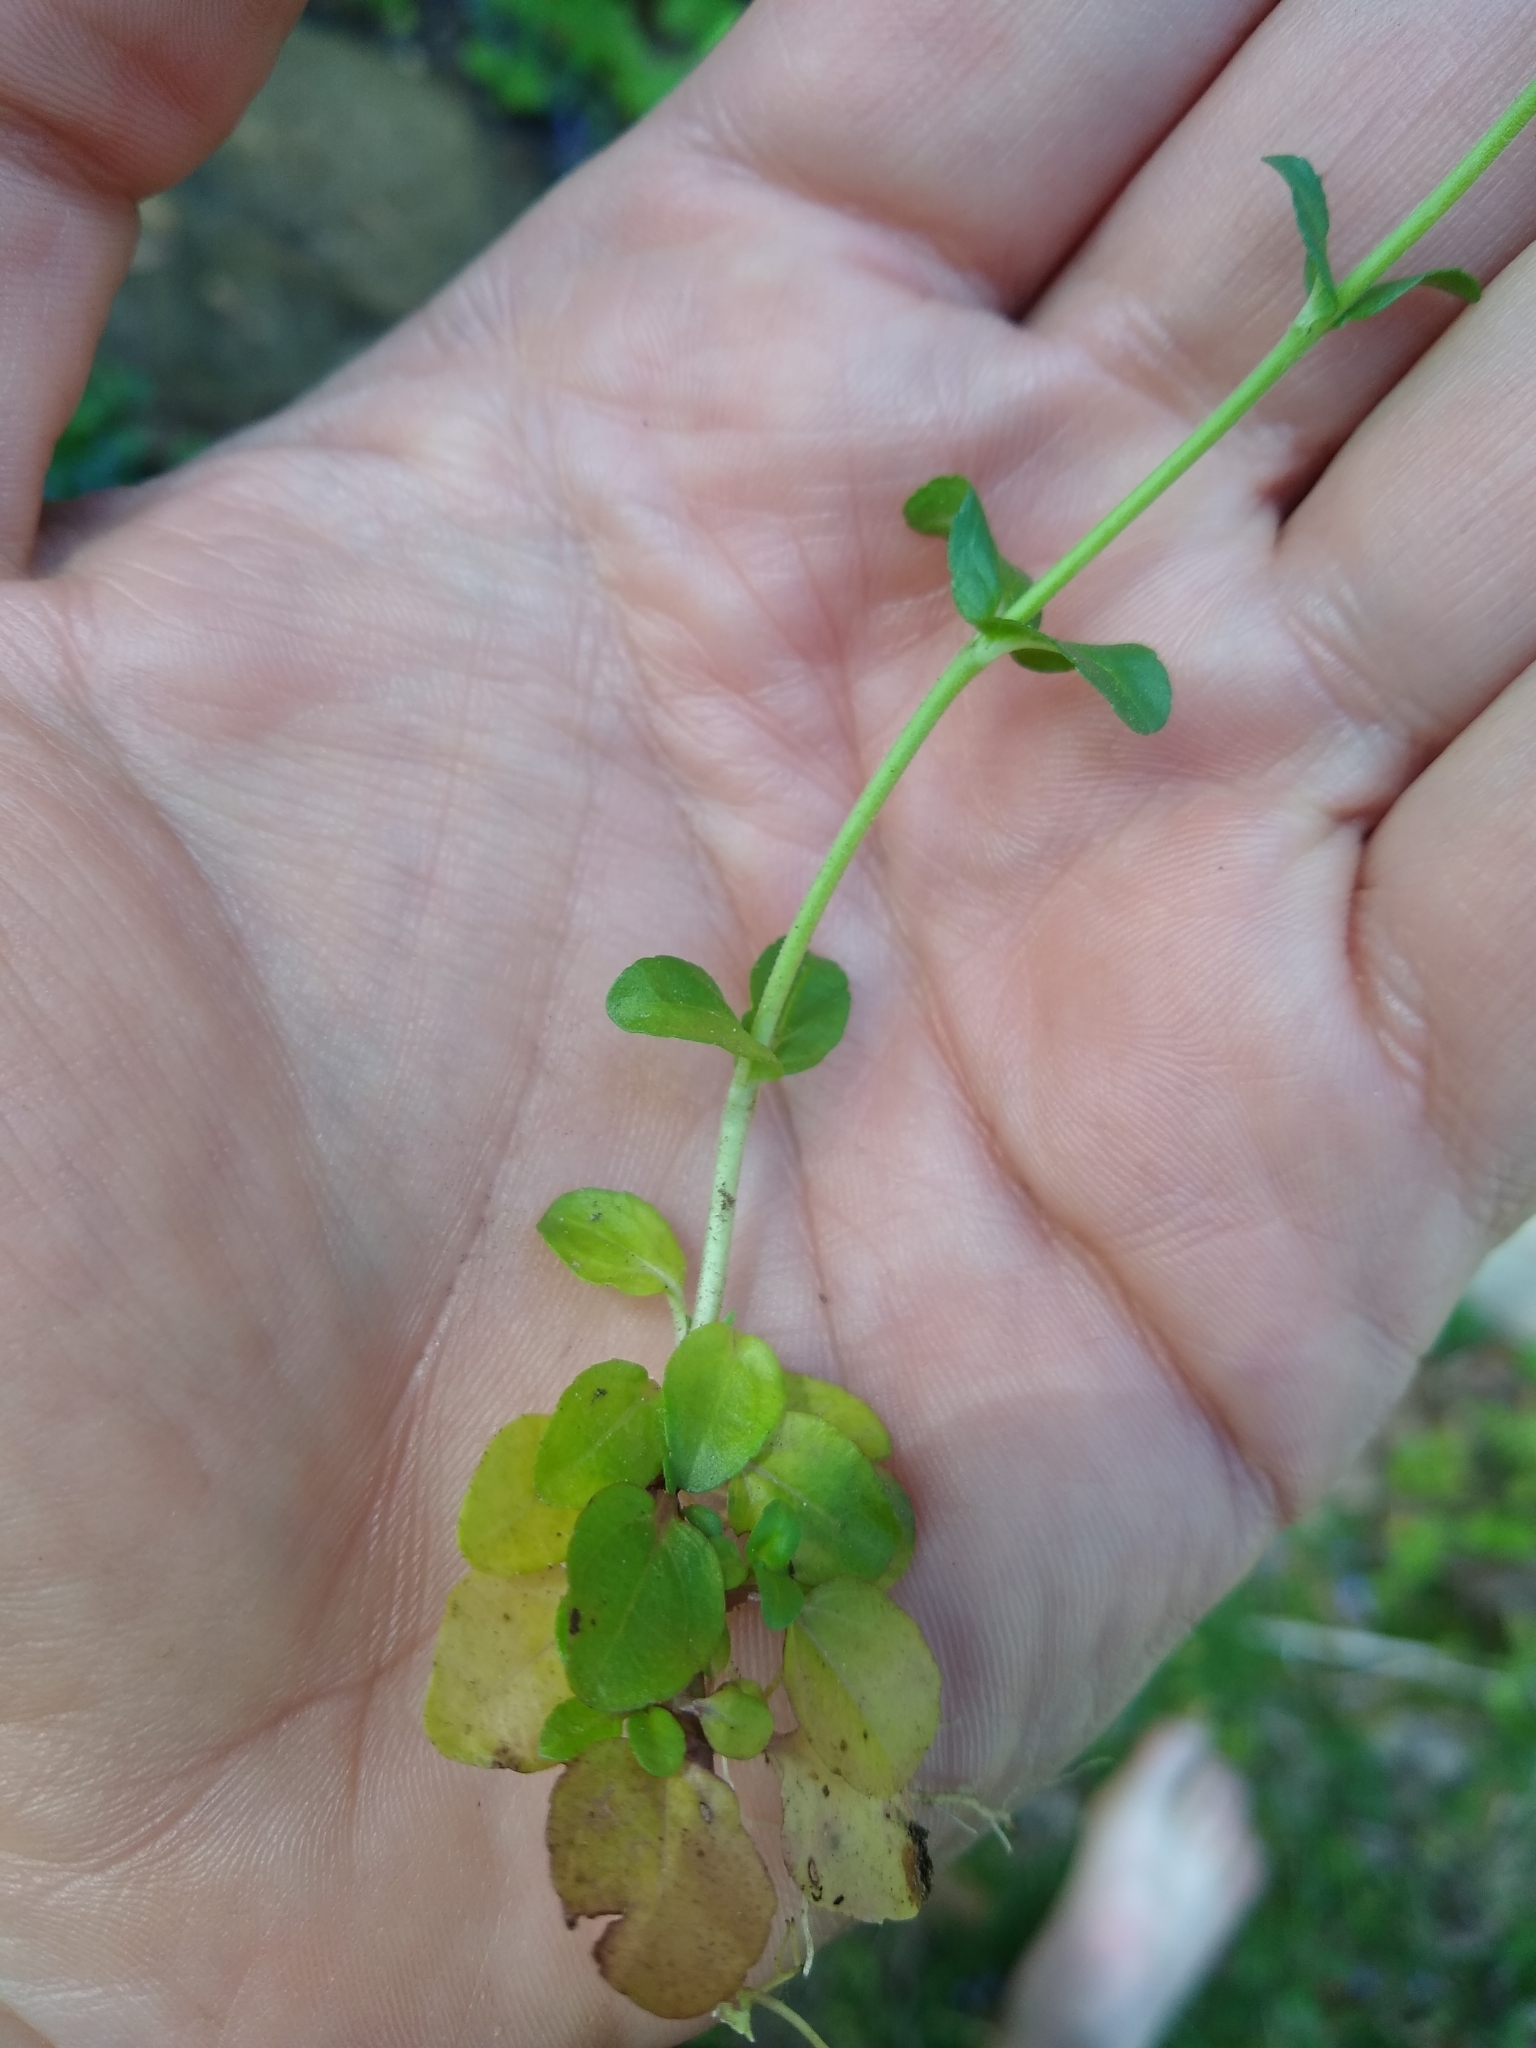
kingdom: Plantae
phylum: Tracheophyta
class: Magnoliopsida
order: Lamiales
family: Plantaginaceae
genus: Veronica
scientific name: Veronica serpyllifolia
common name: Thyme-leaved speedwell
